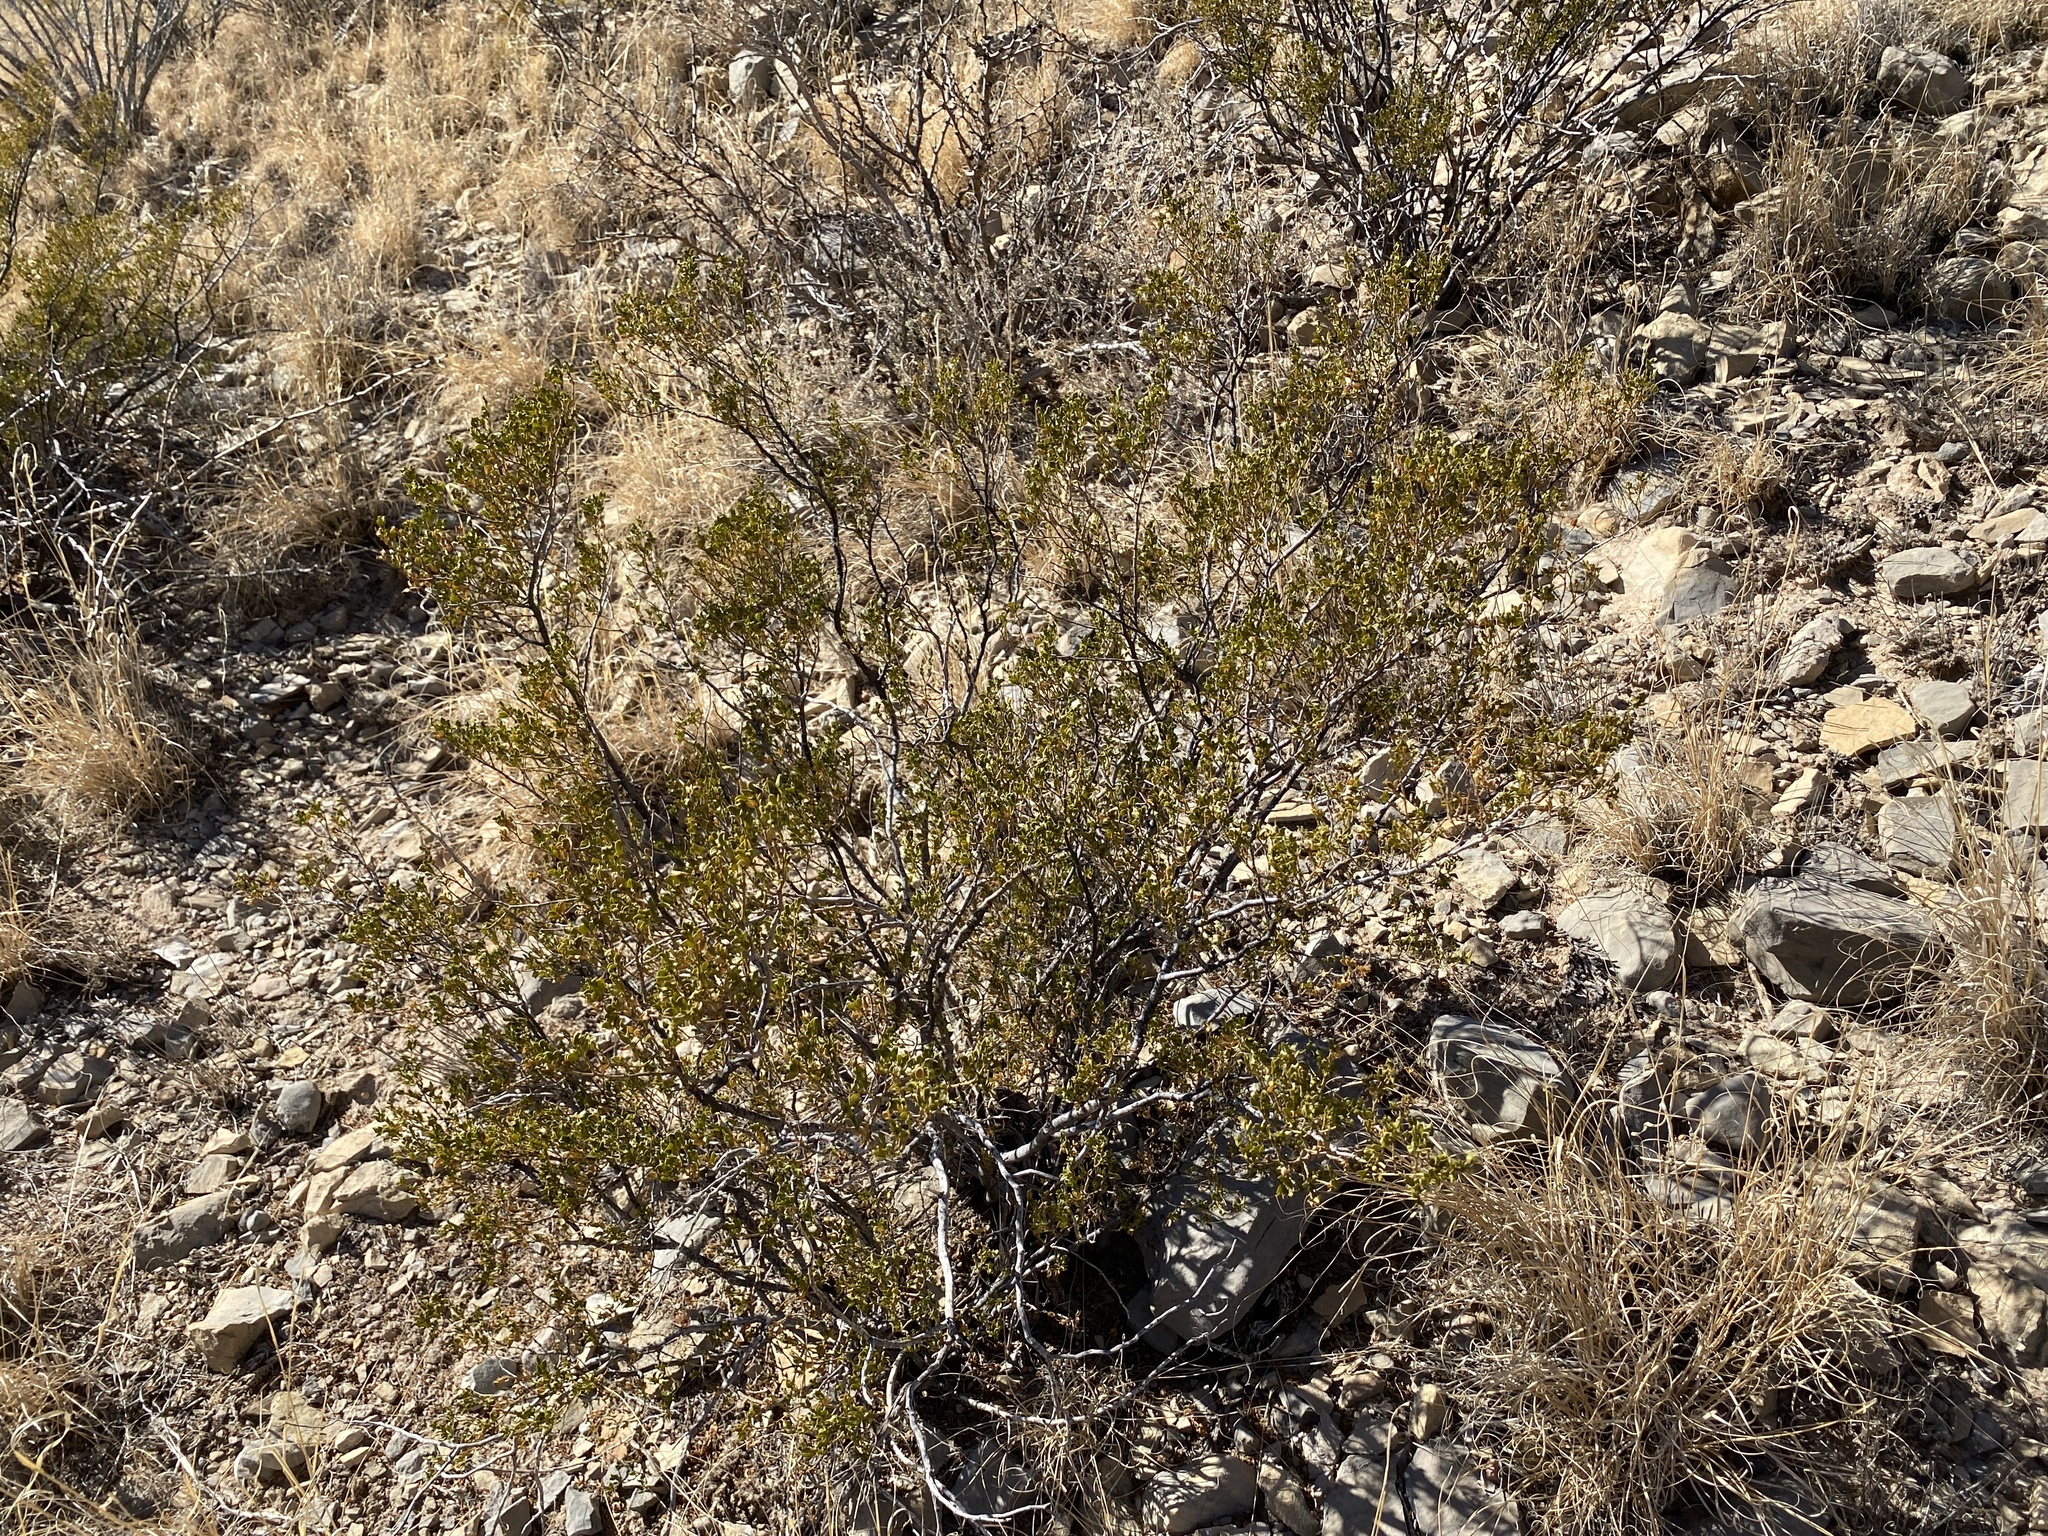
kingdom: Plantae
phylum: Tracheophyta
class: Magnoliopsida
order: Zygophyllales
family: Zygophyllaceae
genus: Larrea
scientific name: Larrea tridentata
